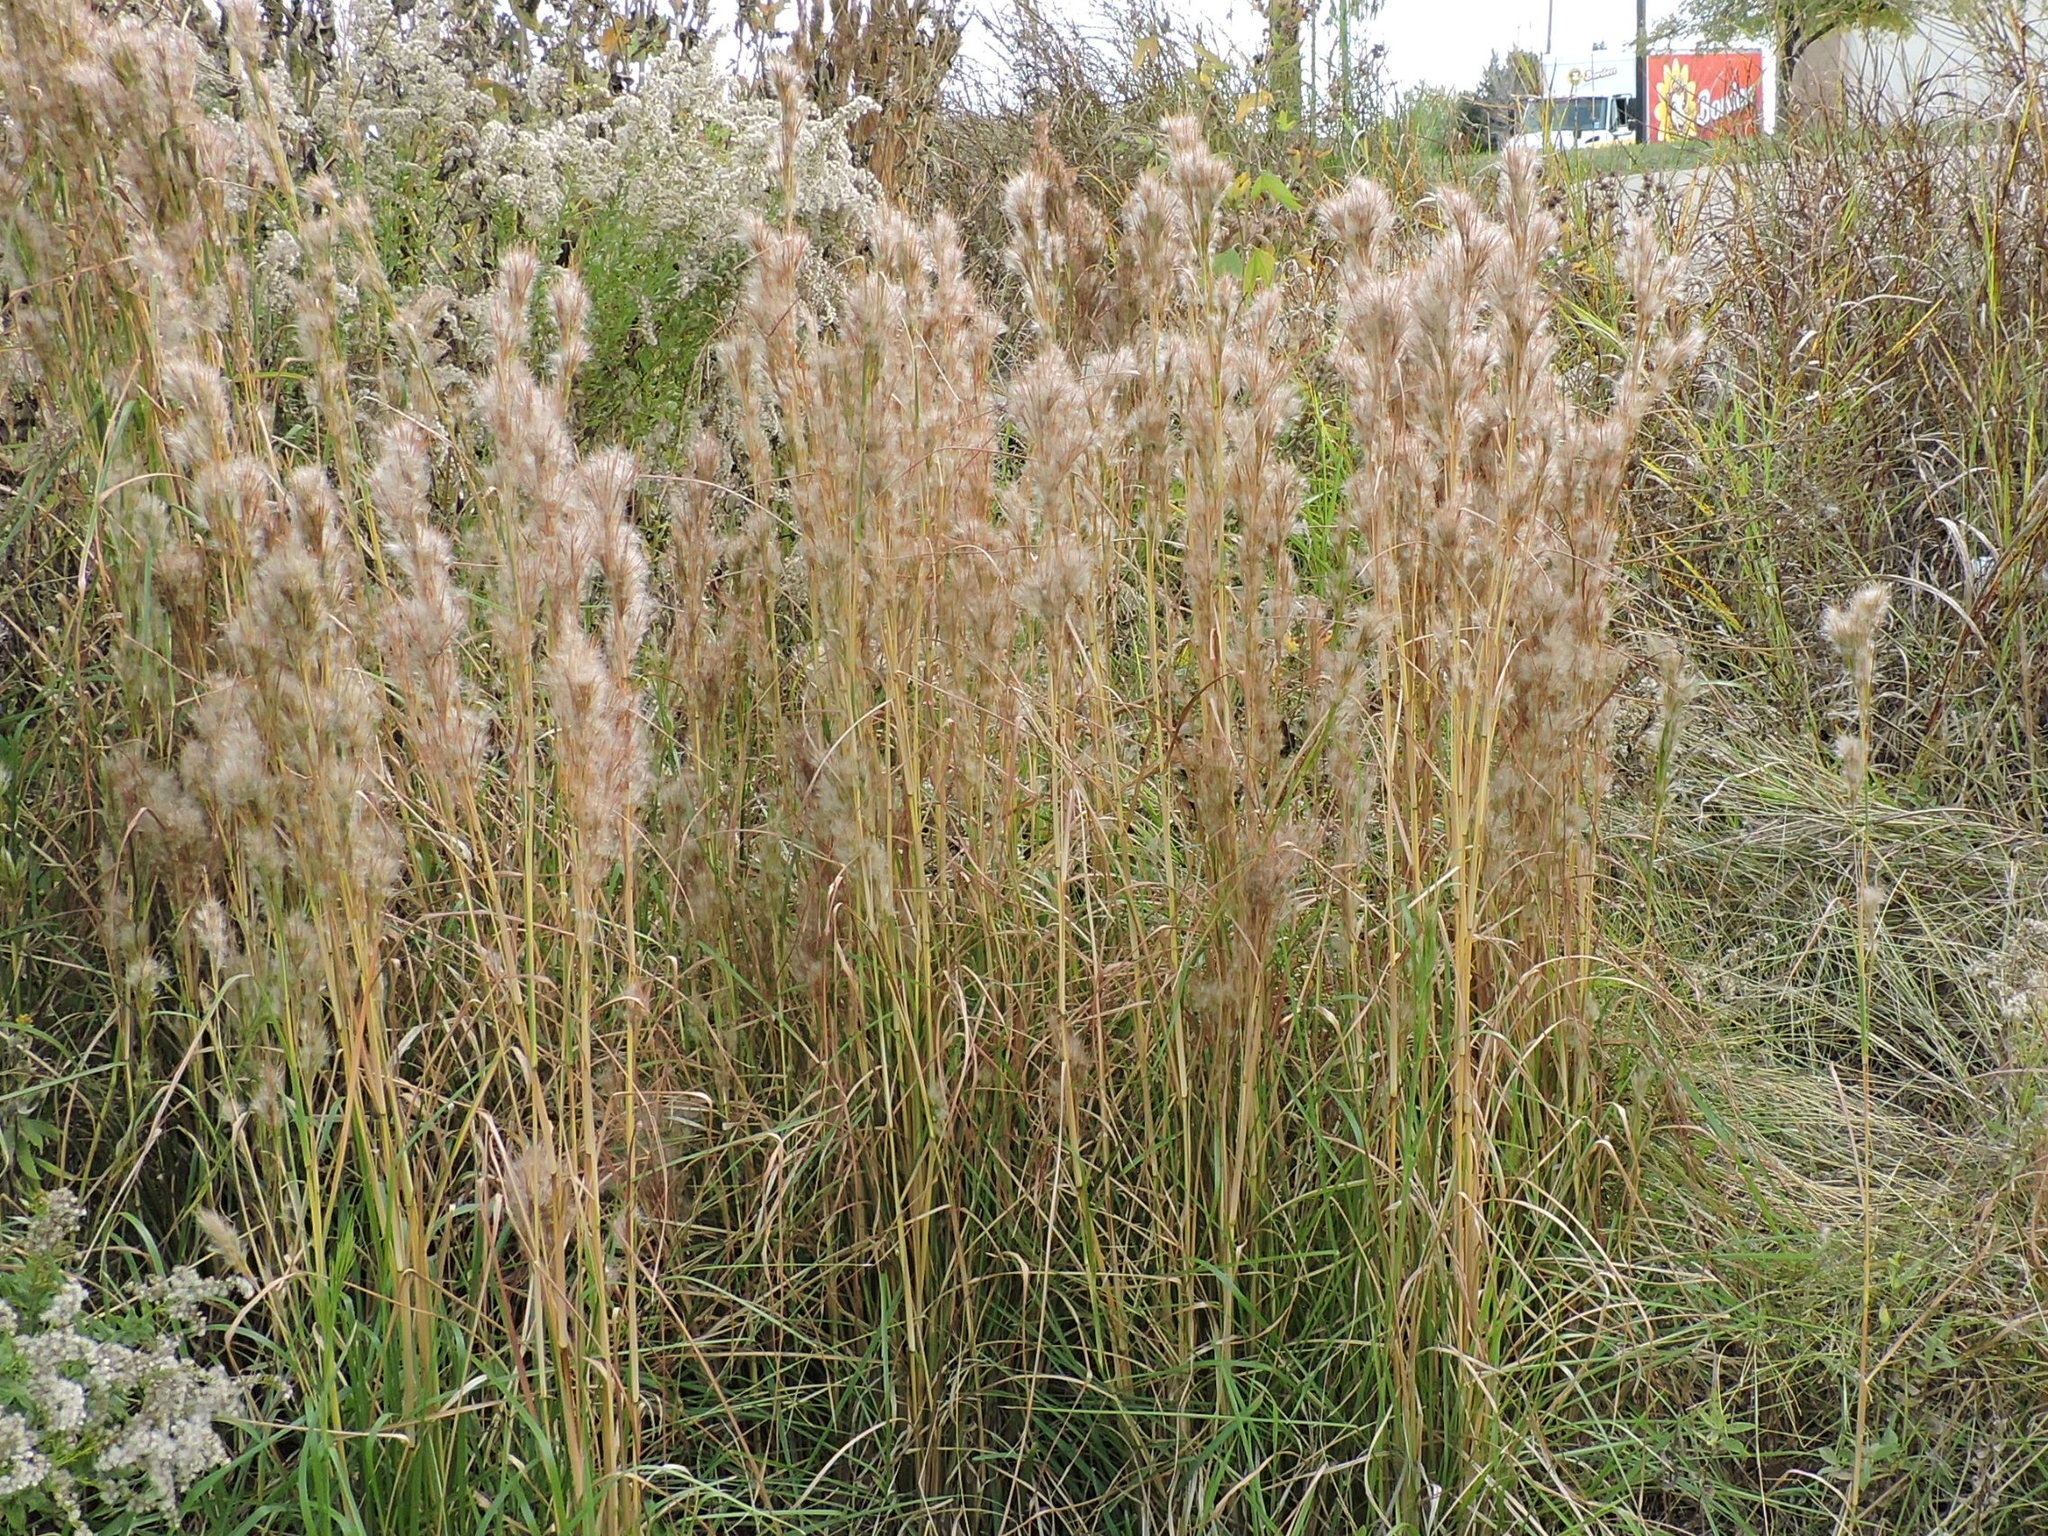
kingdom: Plantae
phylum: Tracheophyta
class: Liliopsida
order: Poales
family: Poaceae
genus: Andropogon
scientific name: Andropogon tenuispatheus
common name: Bushy bluestem
